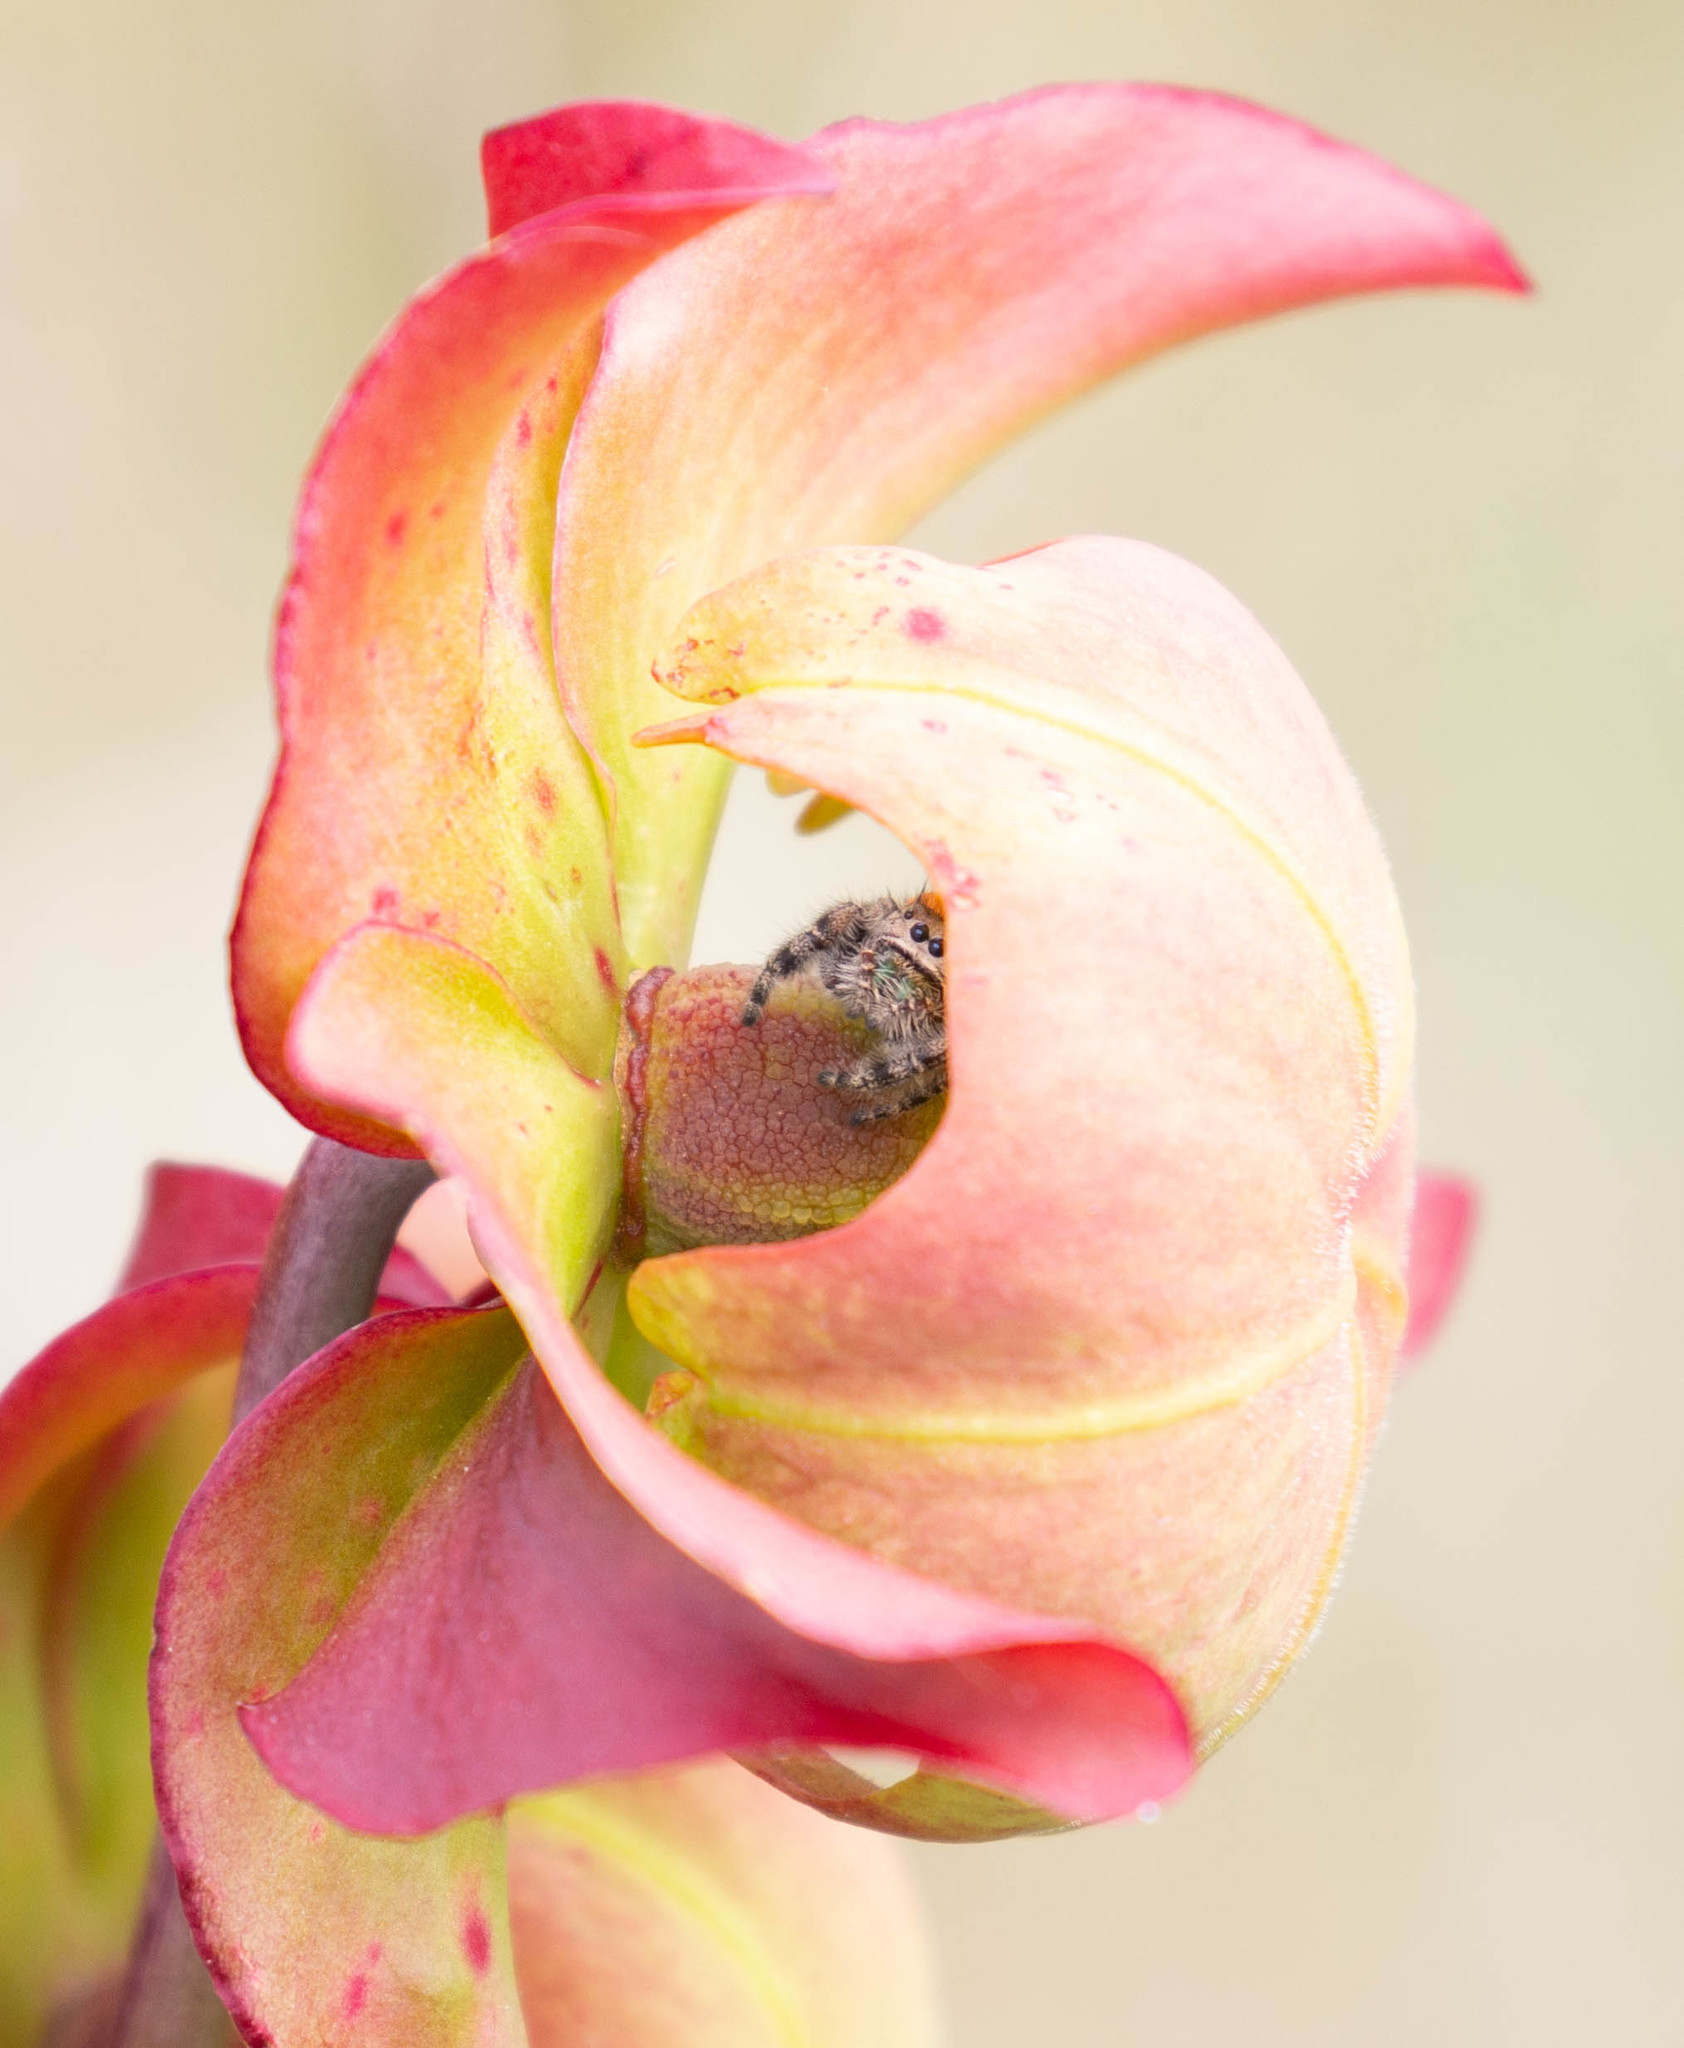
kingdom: Animalia
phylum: Arthropoda
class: Arachnida
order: Araneae
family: Salticidae
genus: Phidippus
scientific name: Phidippus princeps
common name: Grayish jumping spider
